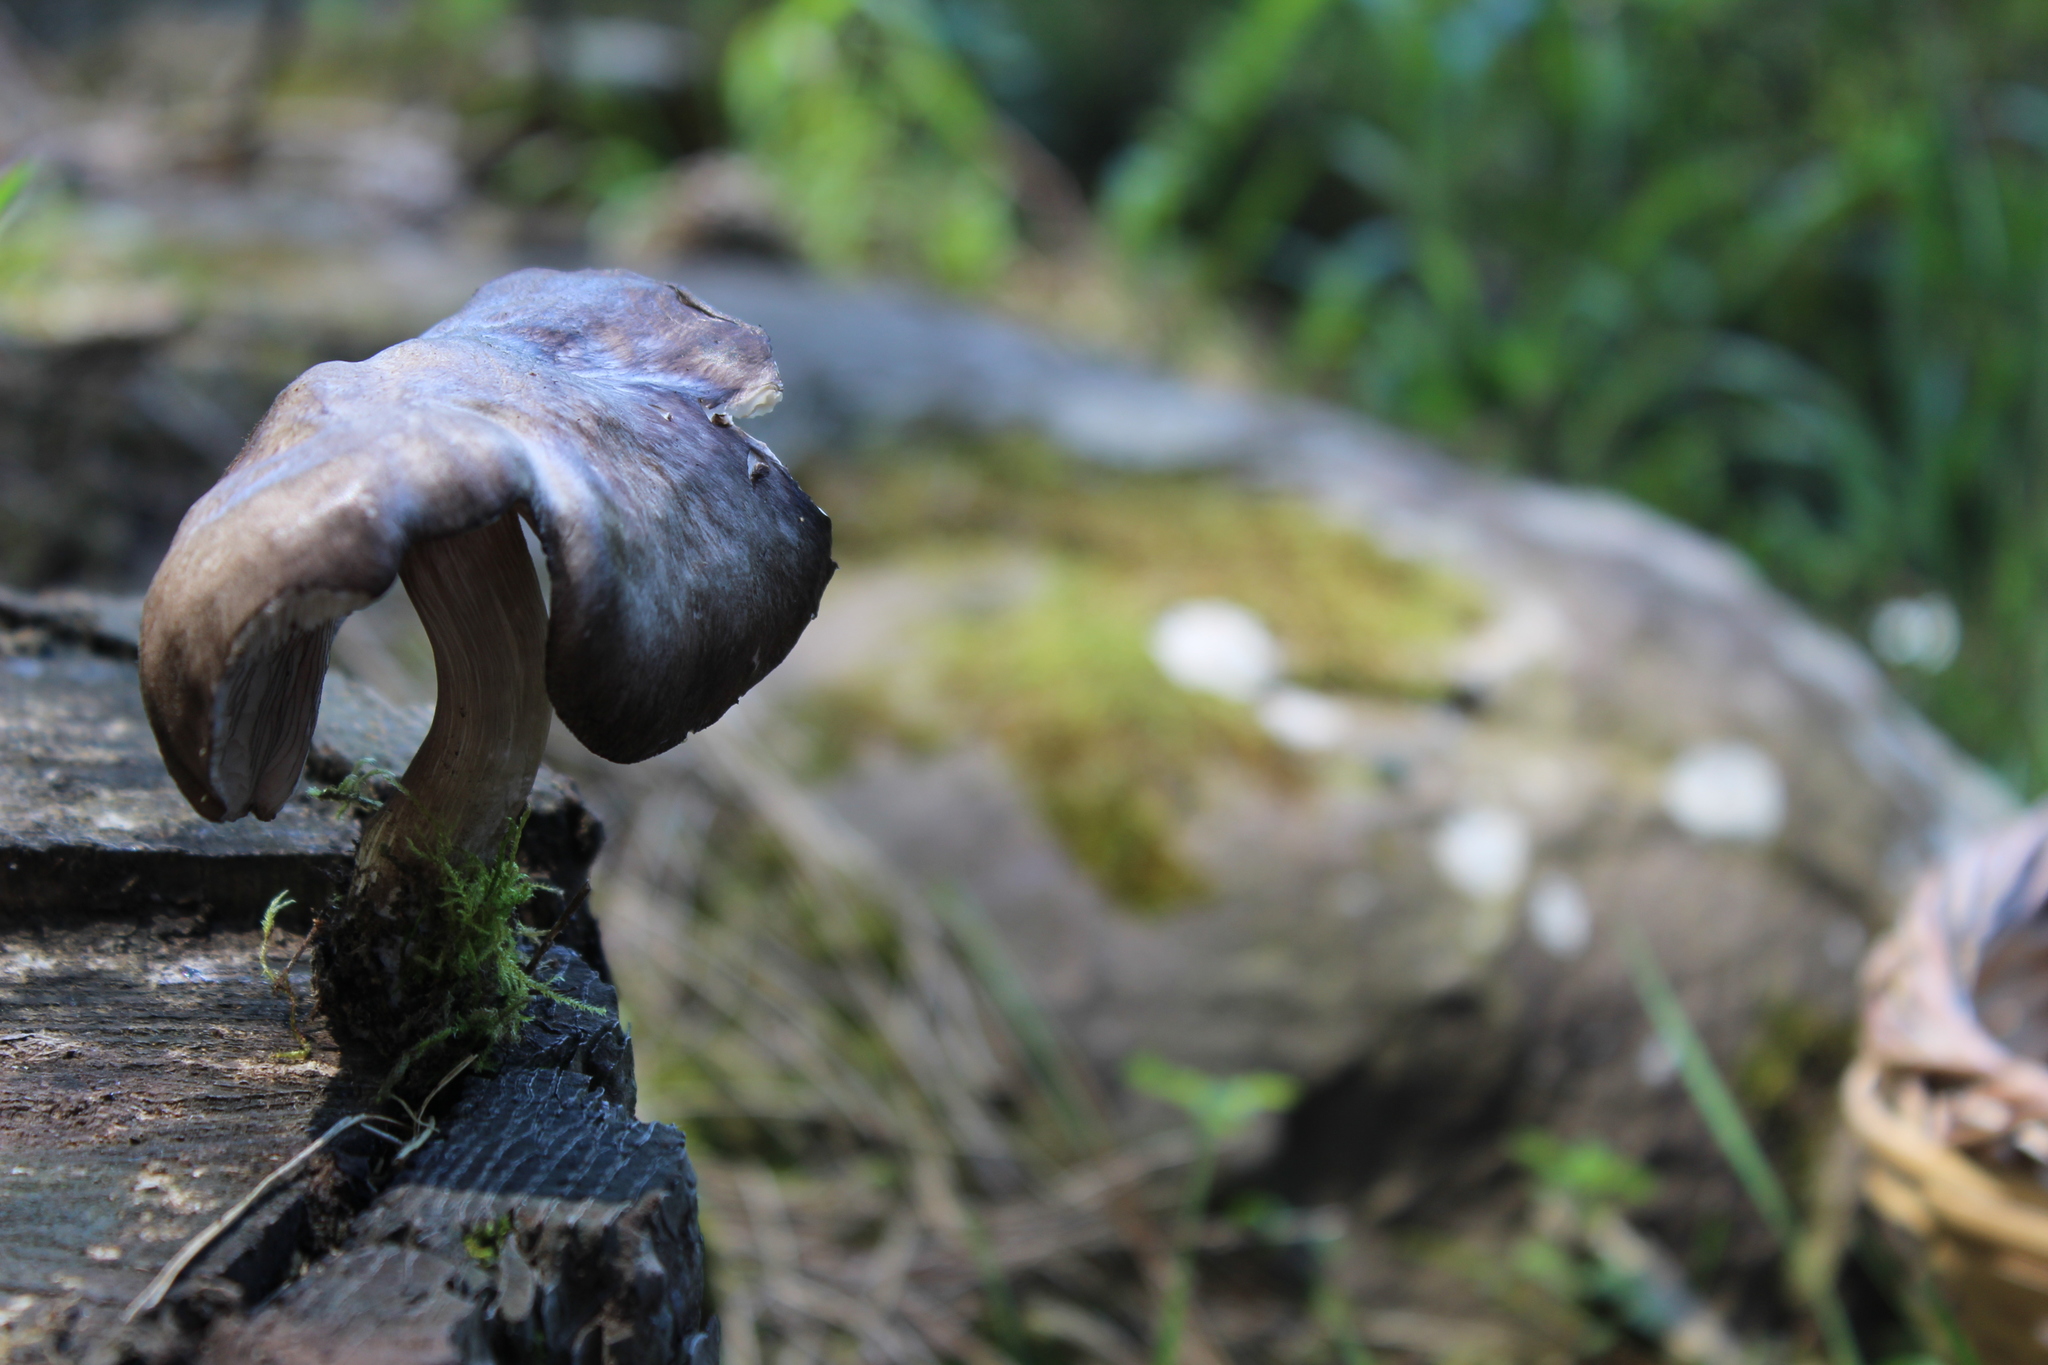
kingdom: Fungi
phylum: Basidiomycota
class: Agaricomycetes
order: Agaricales
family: Pluteaceae
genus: Pluteus
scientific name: Pluteus atromarginatus
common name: Blackedged shield
